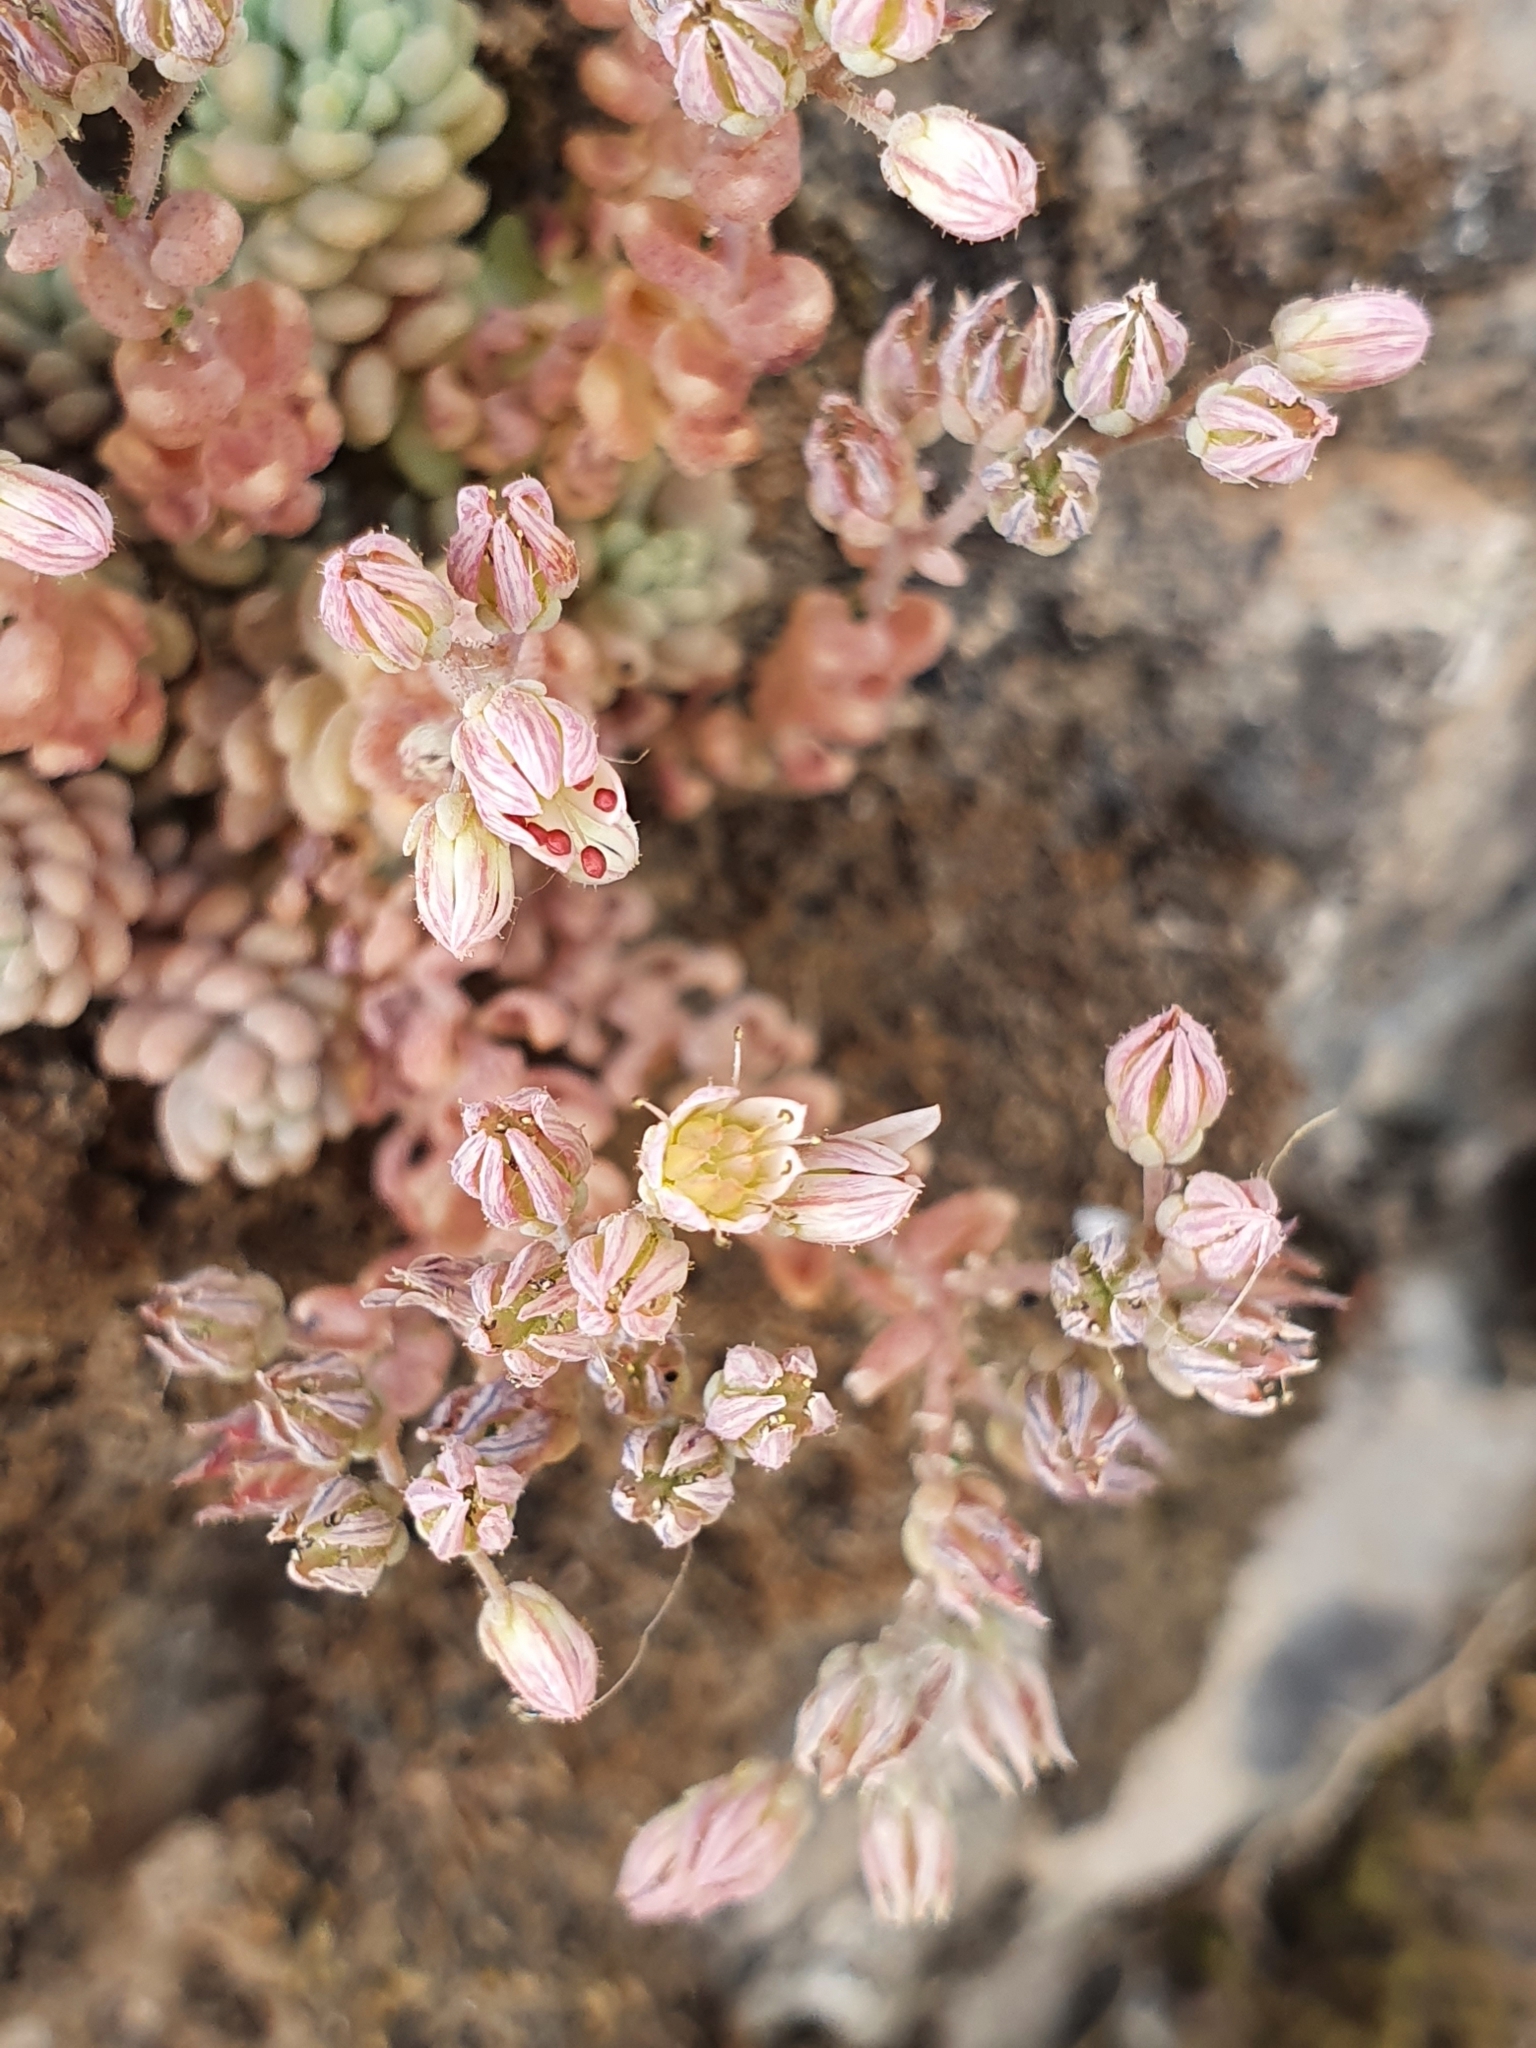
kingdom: Plantae
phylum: Tracheophyta
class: Magnoliopsida
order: Saxifragales
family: Crassulaceae
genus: Sedum
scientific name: Sedum dasyphyllum
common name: Thick-leaf stonecrop
